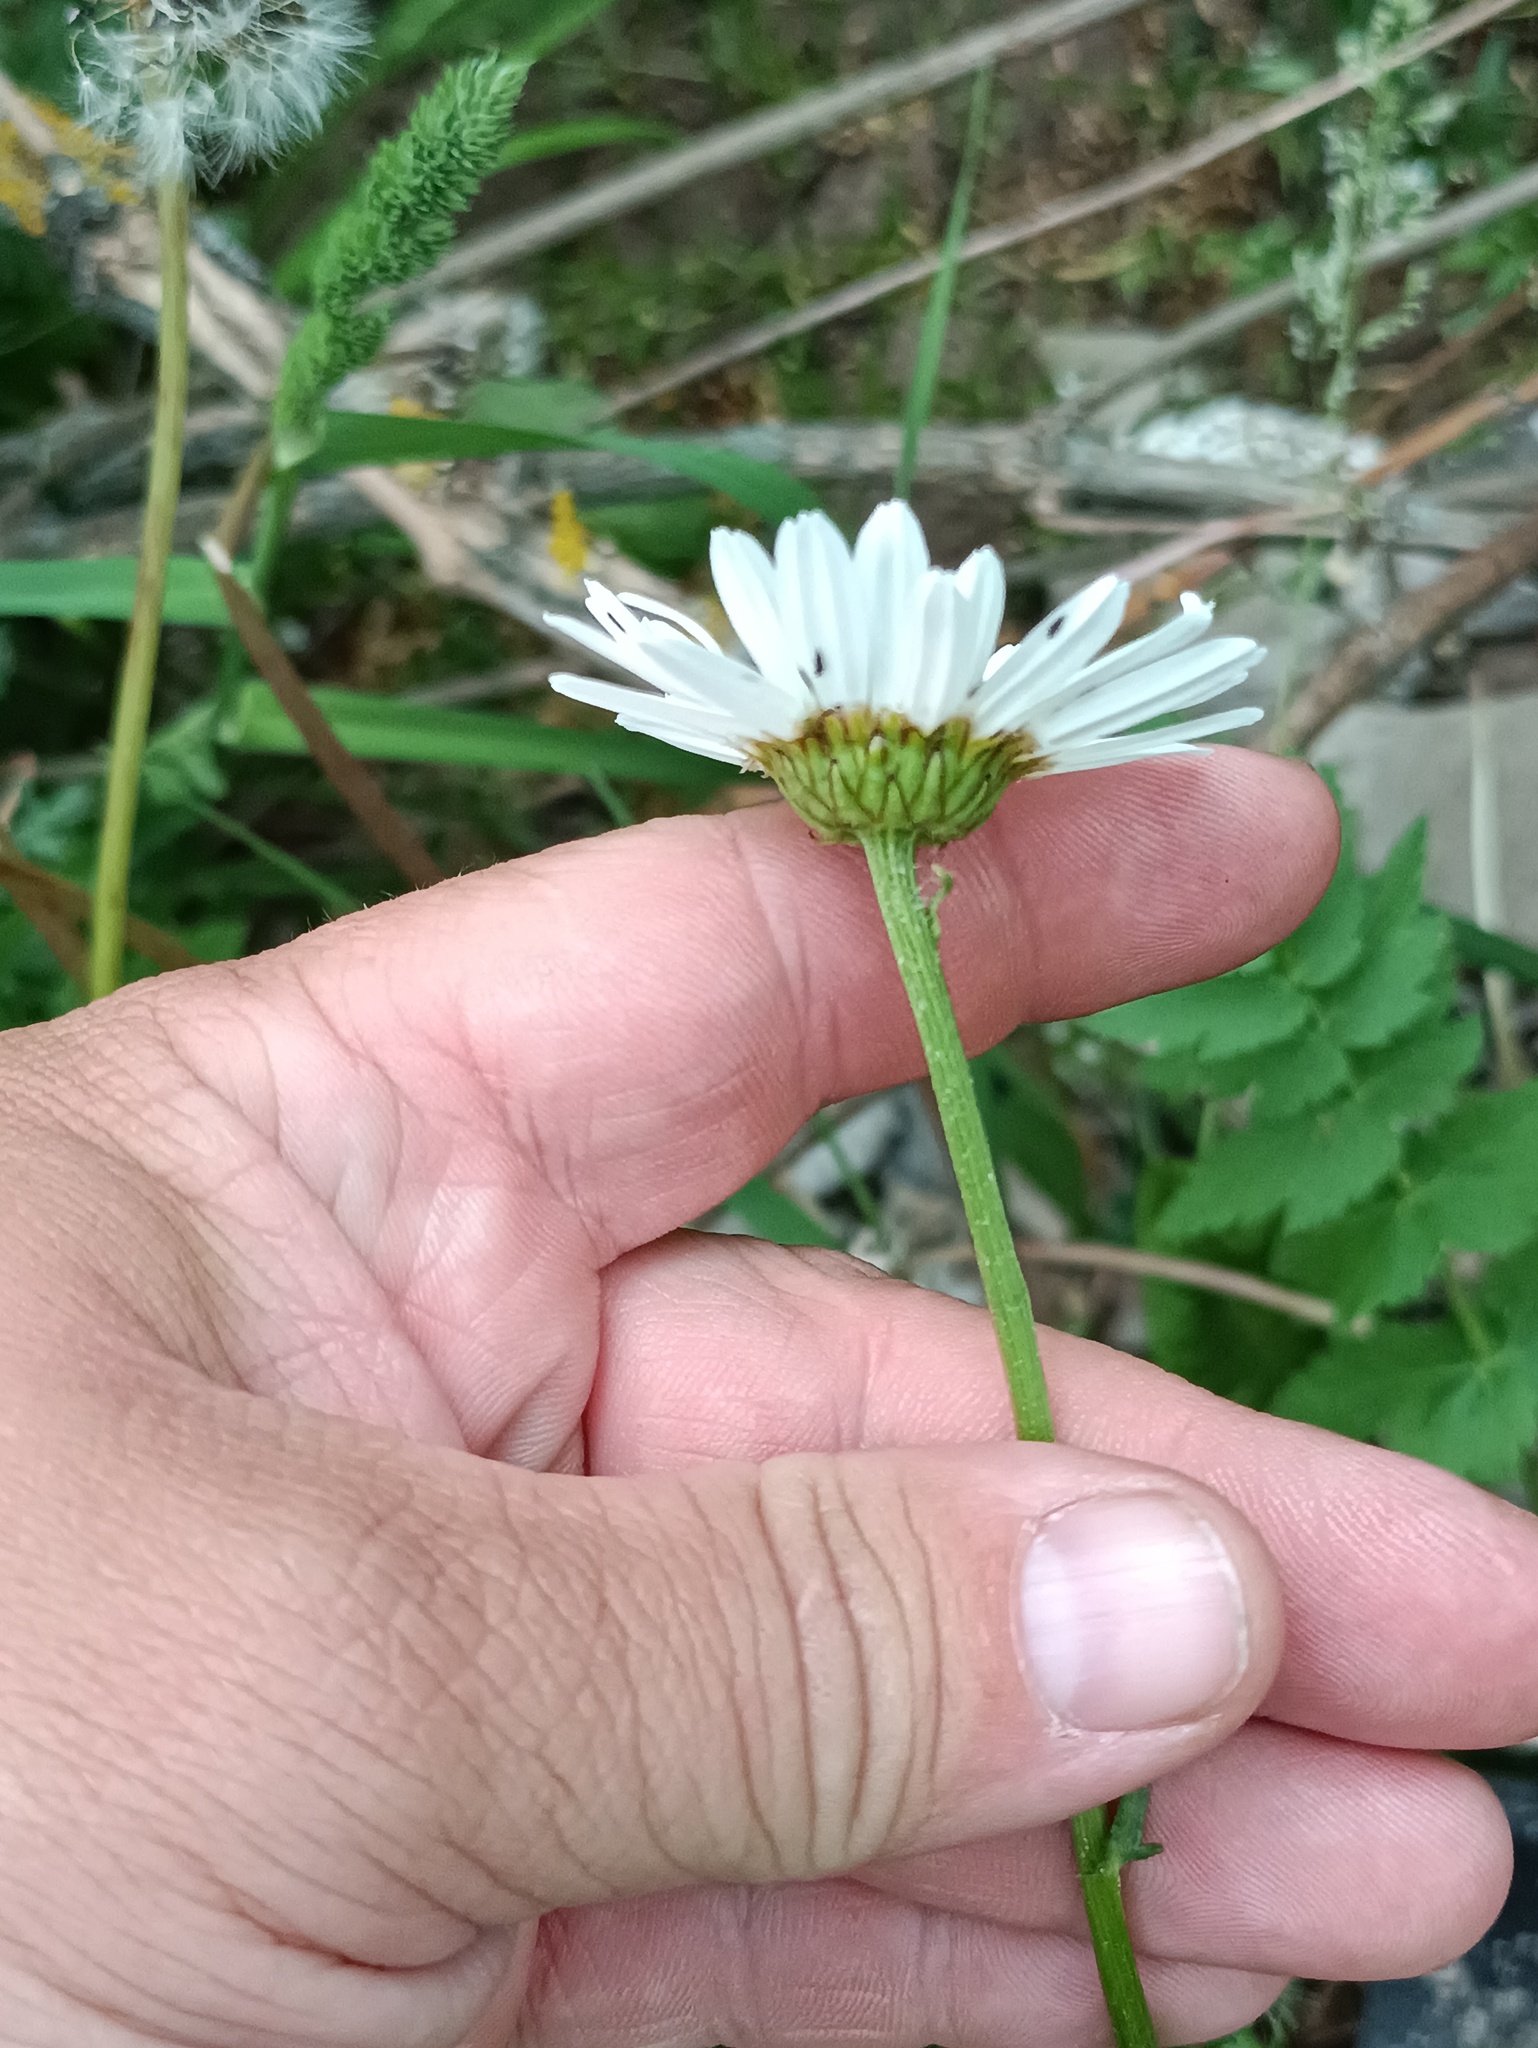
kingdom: Plantae
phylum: Tracheophyta
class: Magnoliopsida
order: Asterales
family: Asteraceae
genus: Leucanthemum
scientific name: Leucanthemum vulgare
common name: Oxeye daisy
